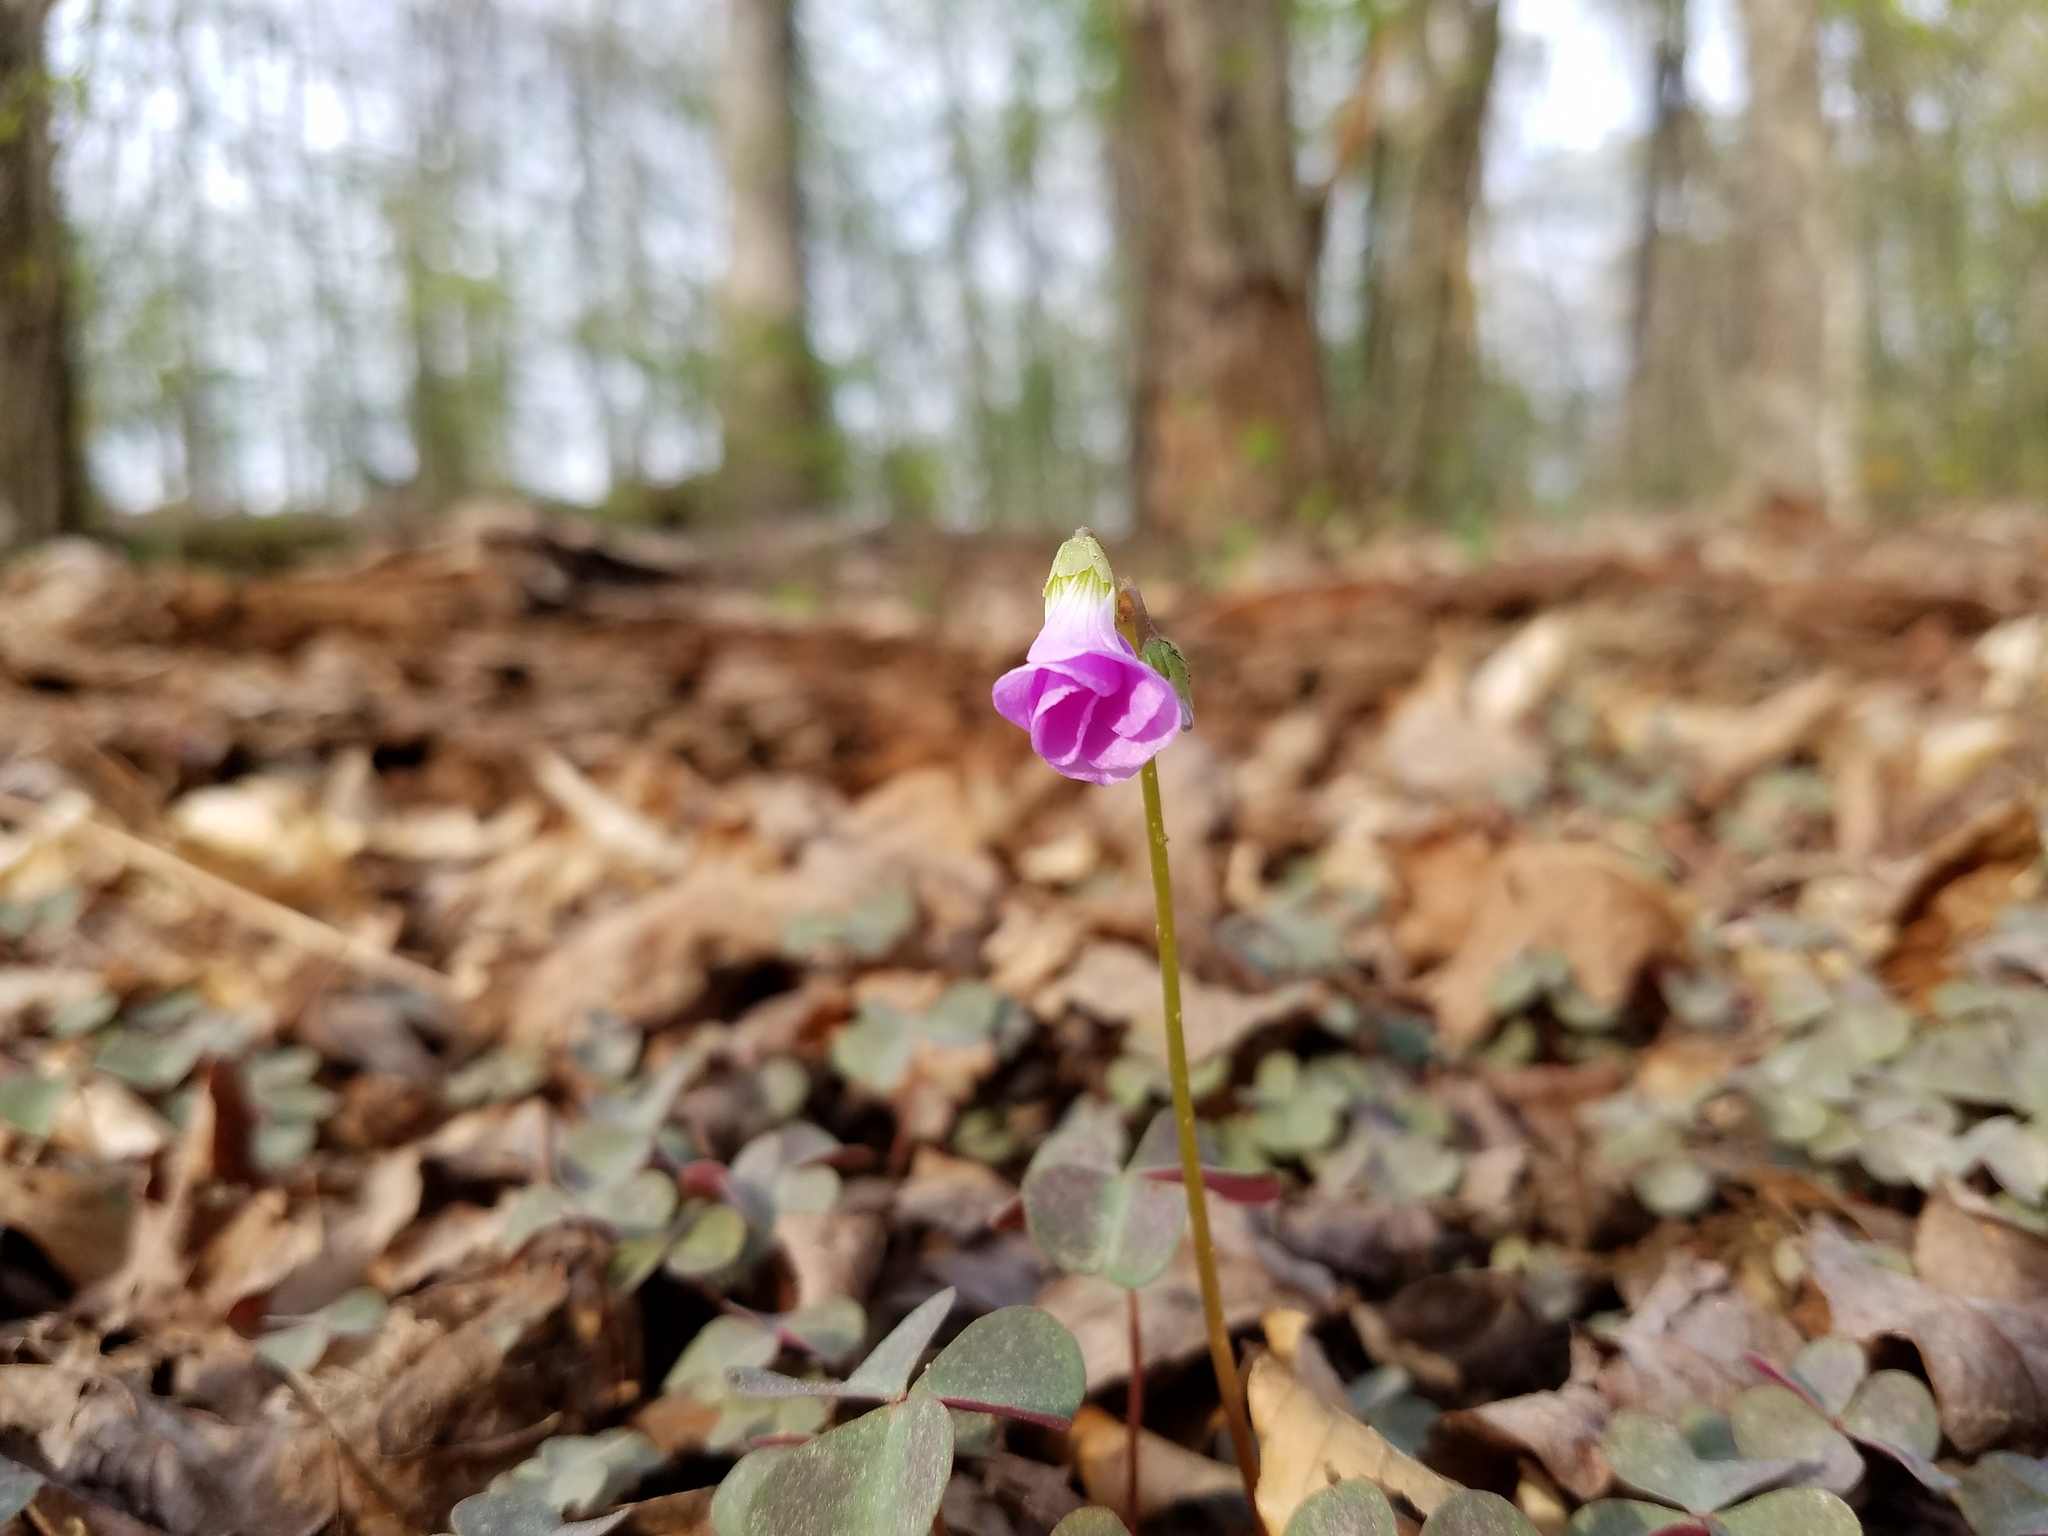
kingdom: Plantae
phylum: Tracheophyta
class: Magnoliopsida
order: Oxalidales
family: Oxalidaceae
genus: Oxalis
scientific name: Oxalis violacea
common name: Violet wood-sorrel
